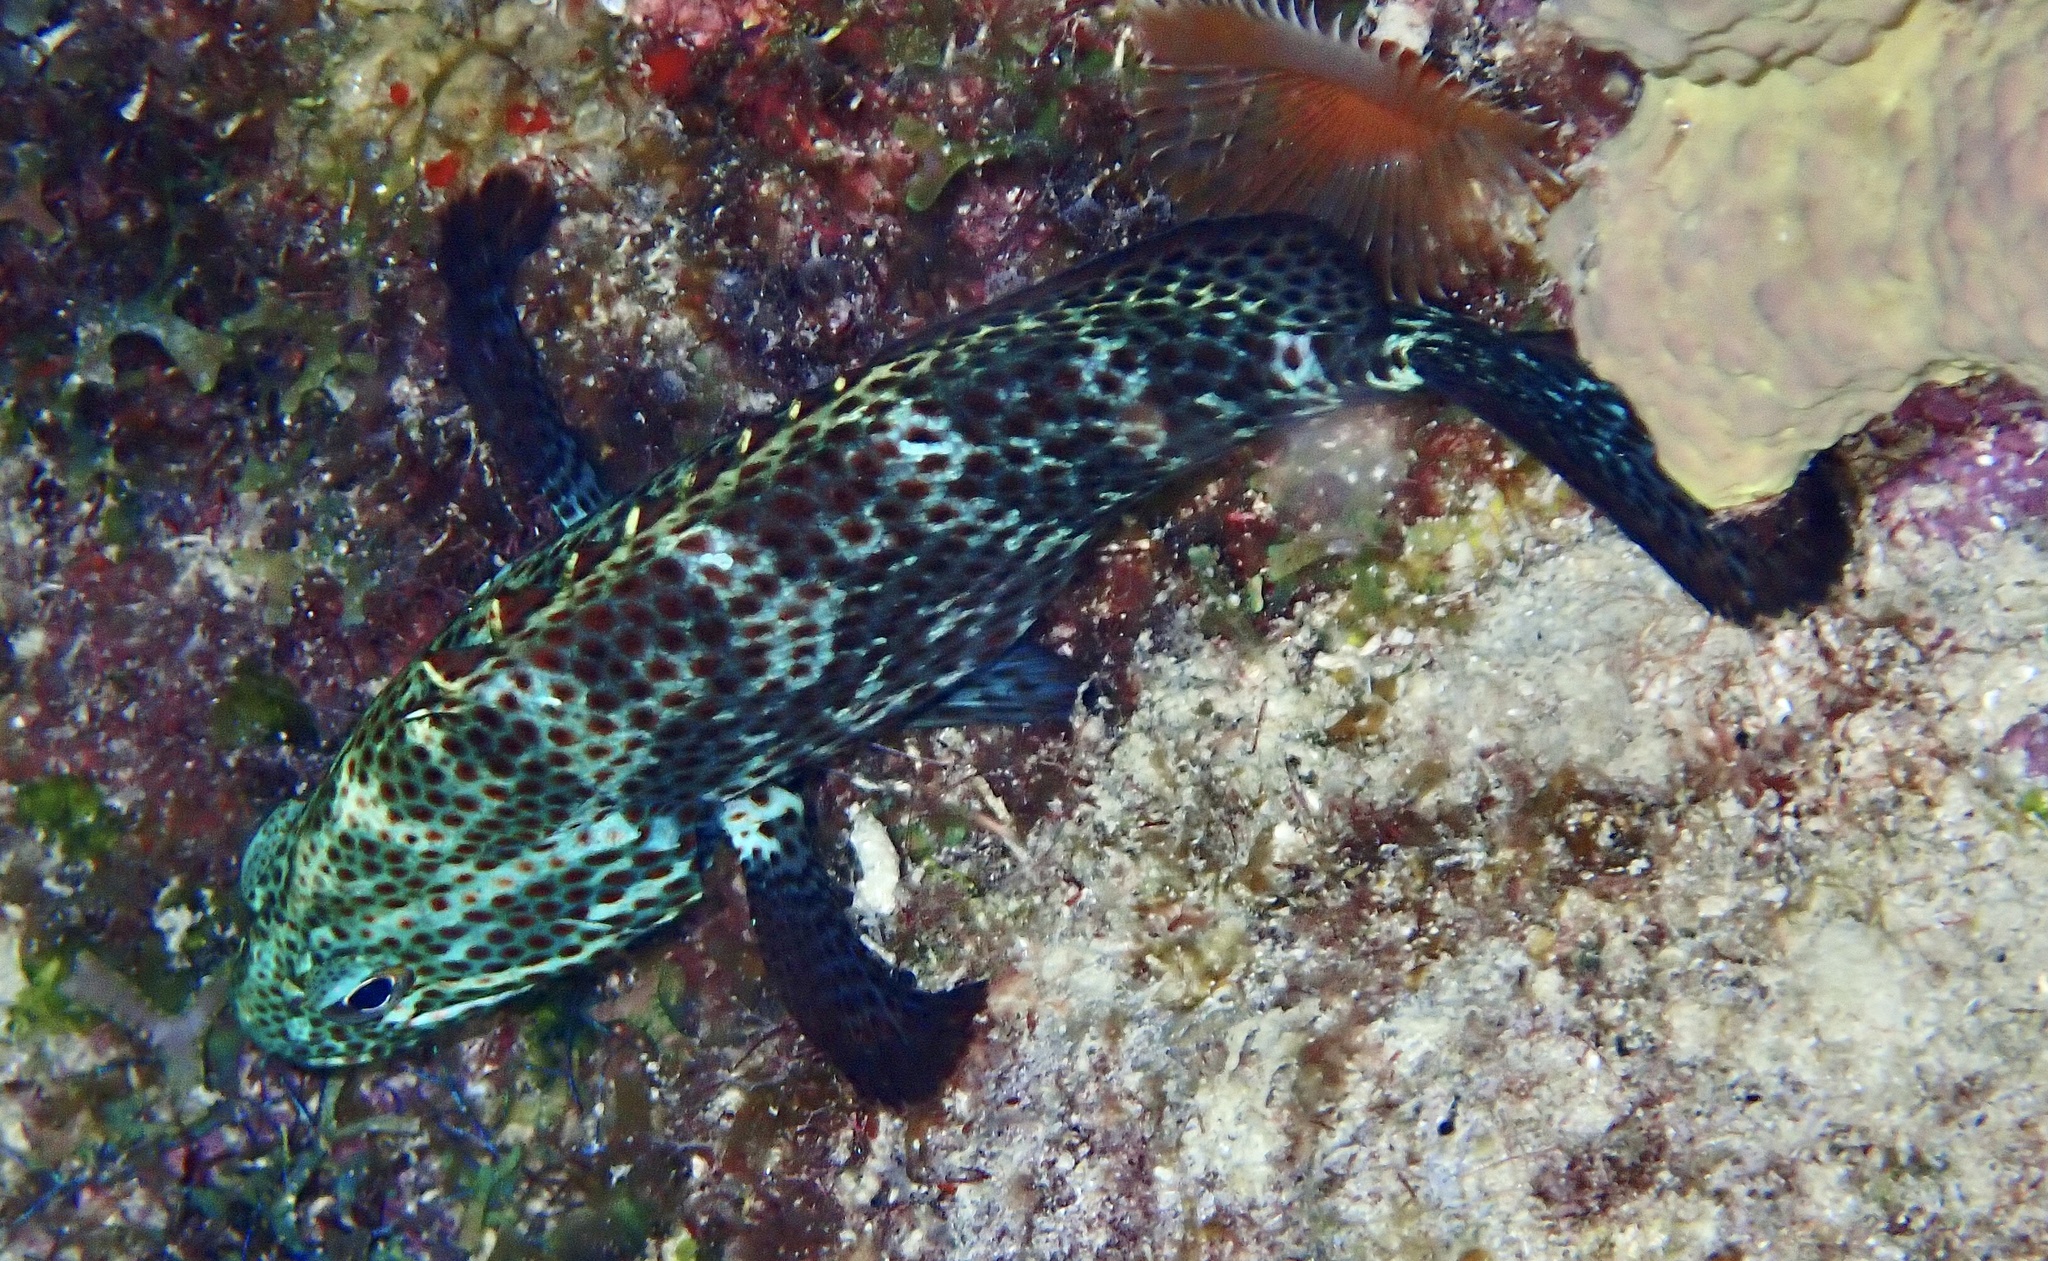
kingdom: Animalia
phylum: Chordata
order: Perciformes
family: Serranidae
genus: Cephalopholis
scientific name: Cephalopholis cruentata
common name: Graysby
